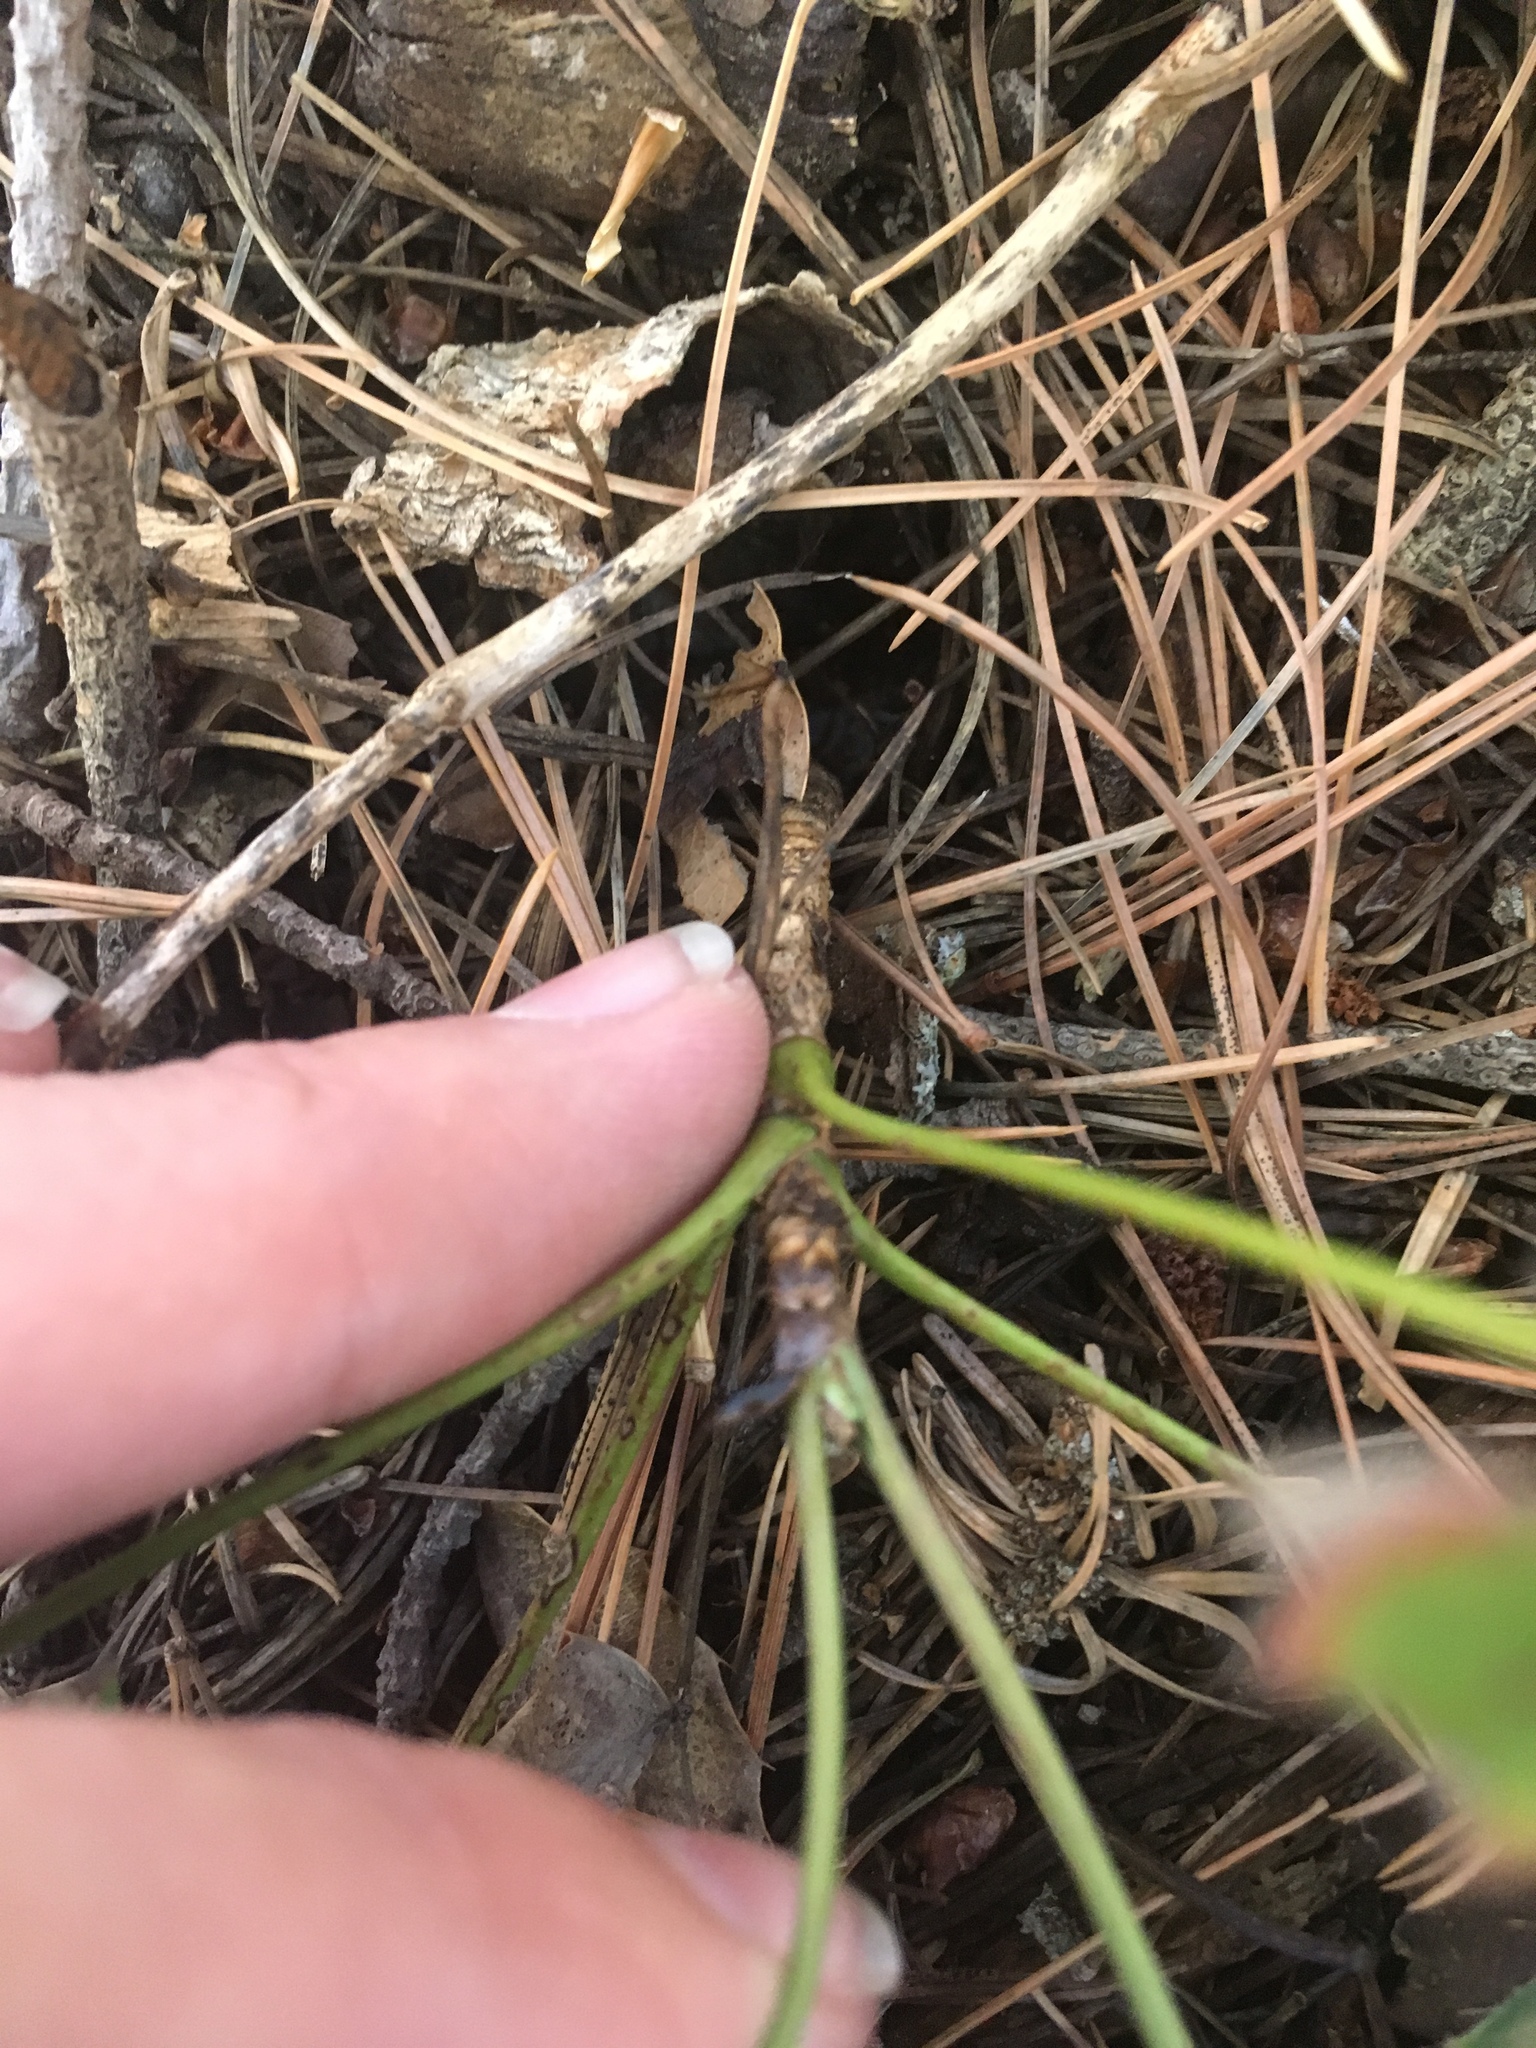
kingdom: Plantae
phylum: Tracheophyta
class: Magnoliopsida
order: Ranunculales
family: Berberidaceae
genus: Mahonia
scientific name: Mahonia repens
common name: Creeping oregon-grape
